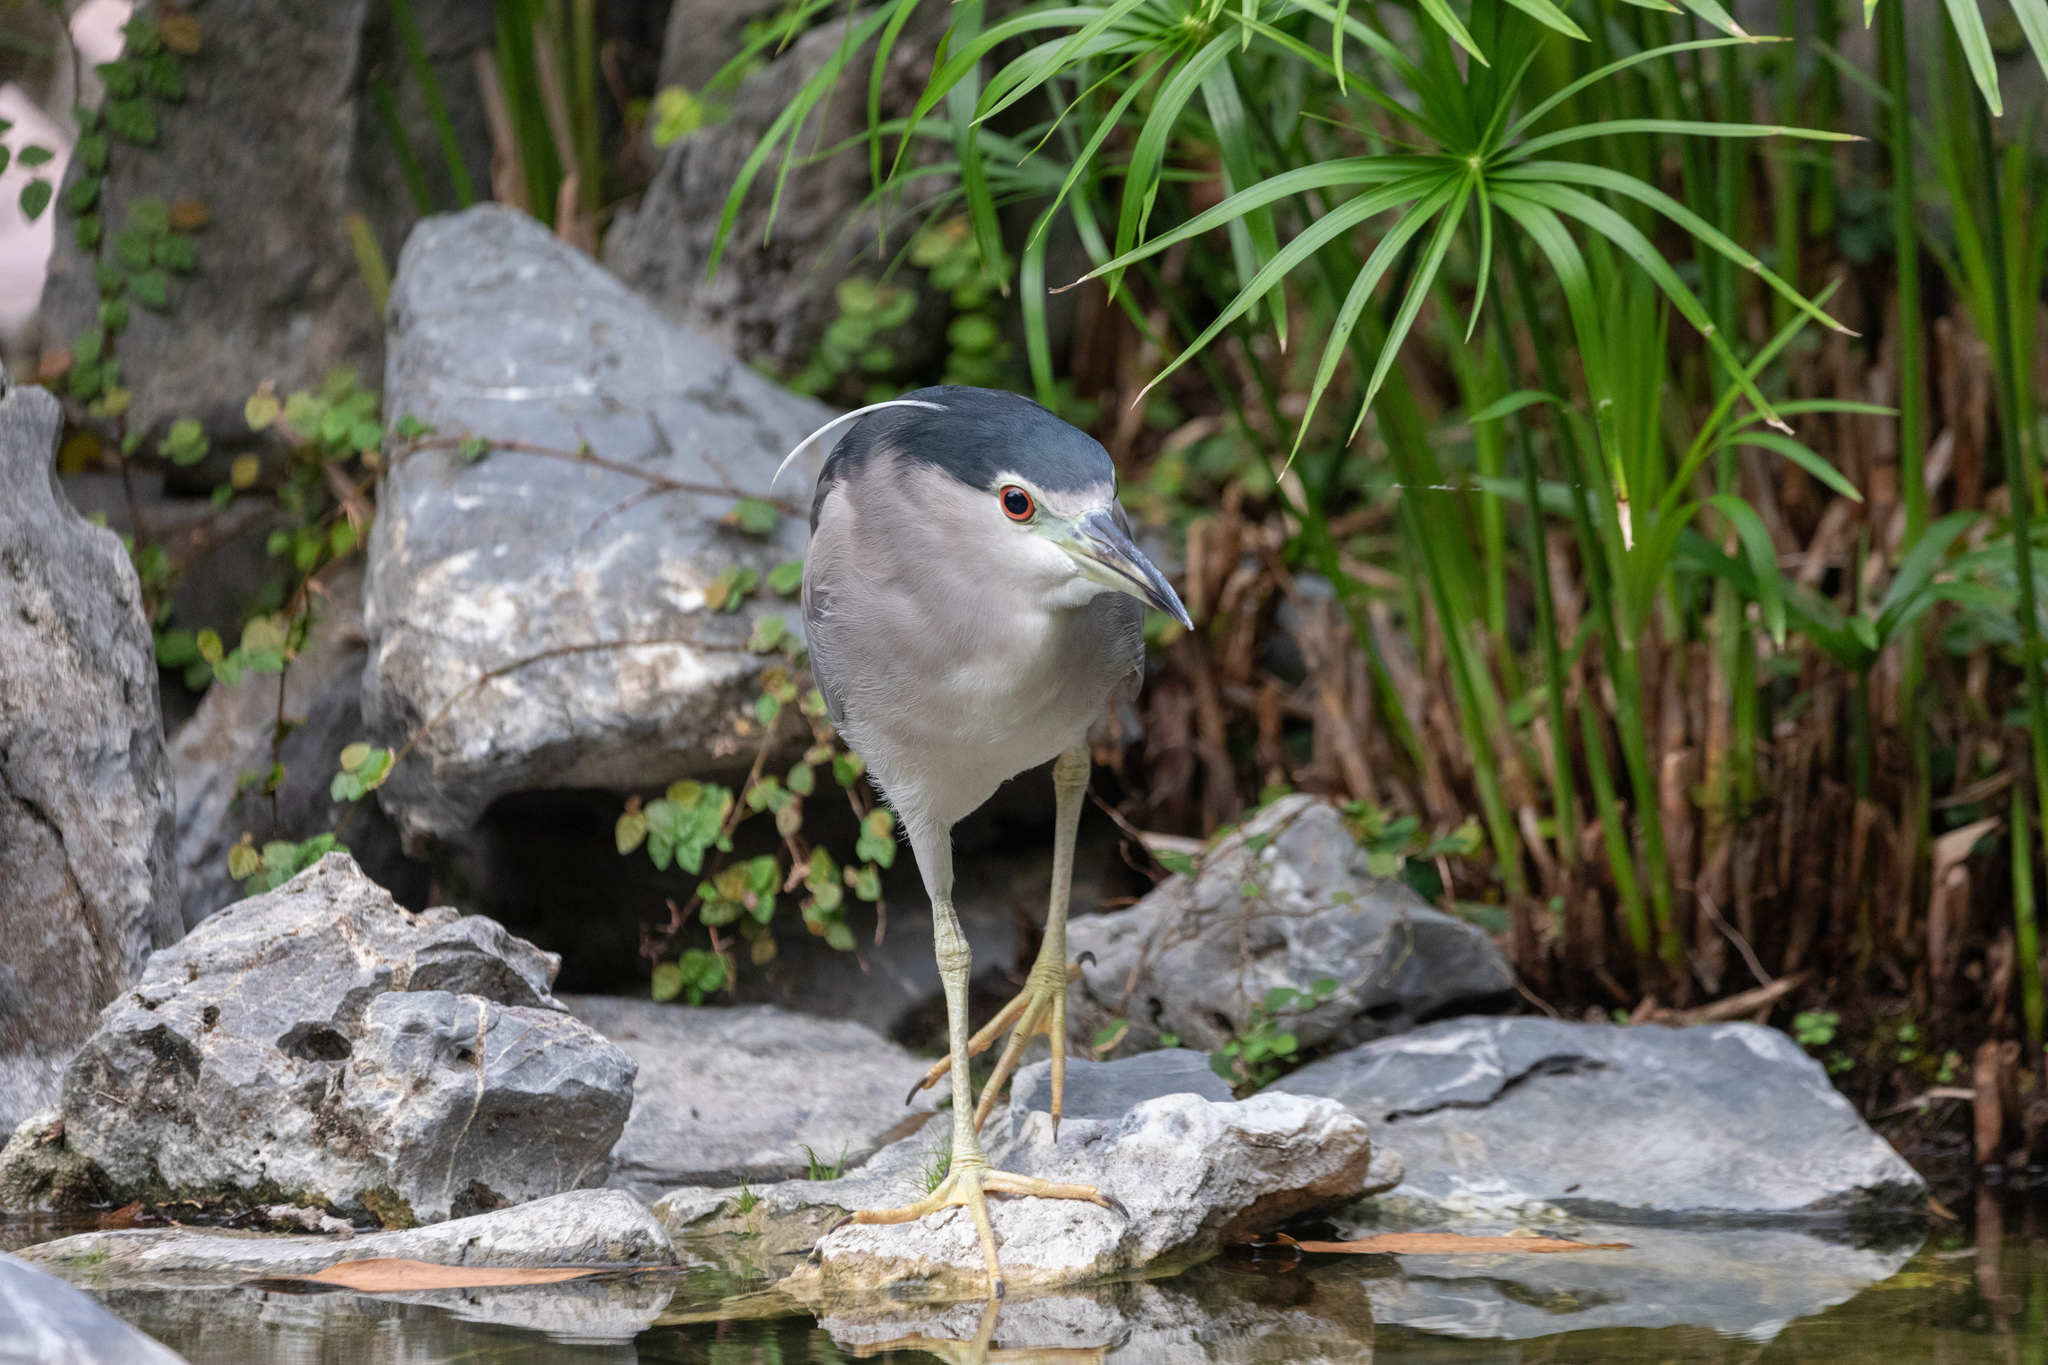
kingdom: Animalia
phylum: Chordata
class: Aves
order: Pelecaniformes
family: Ardeidae
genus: Nycticorax
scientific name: Nycticorax nycticorax
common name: Black-crowned night heron
